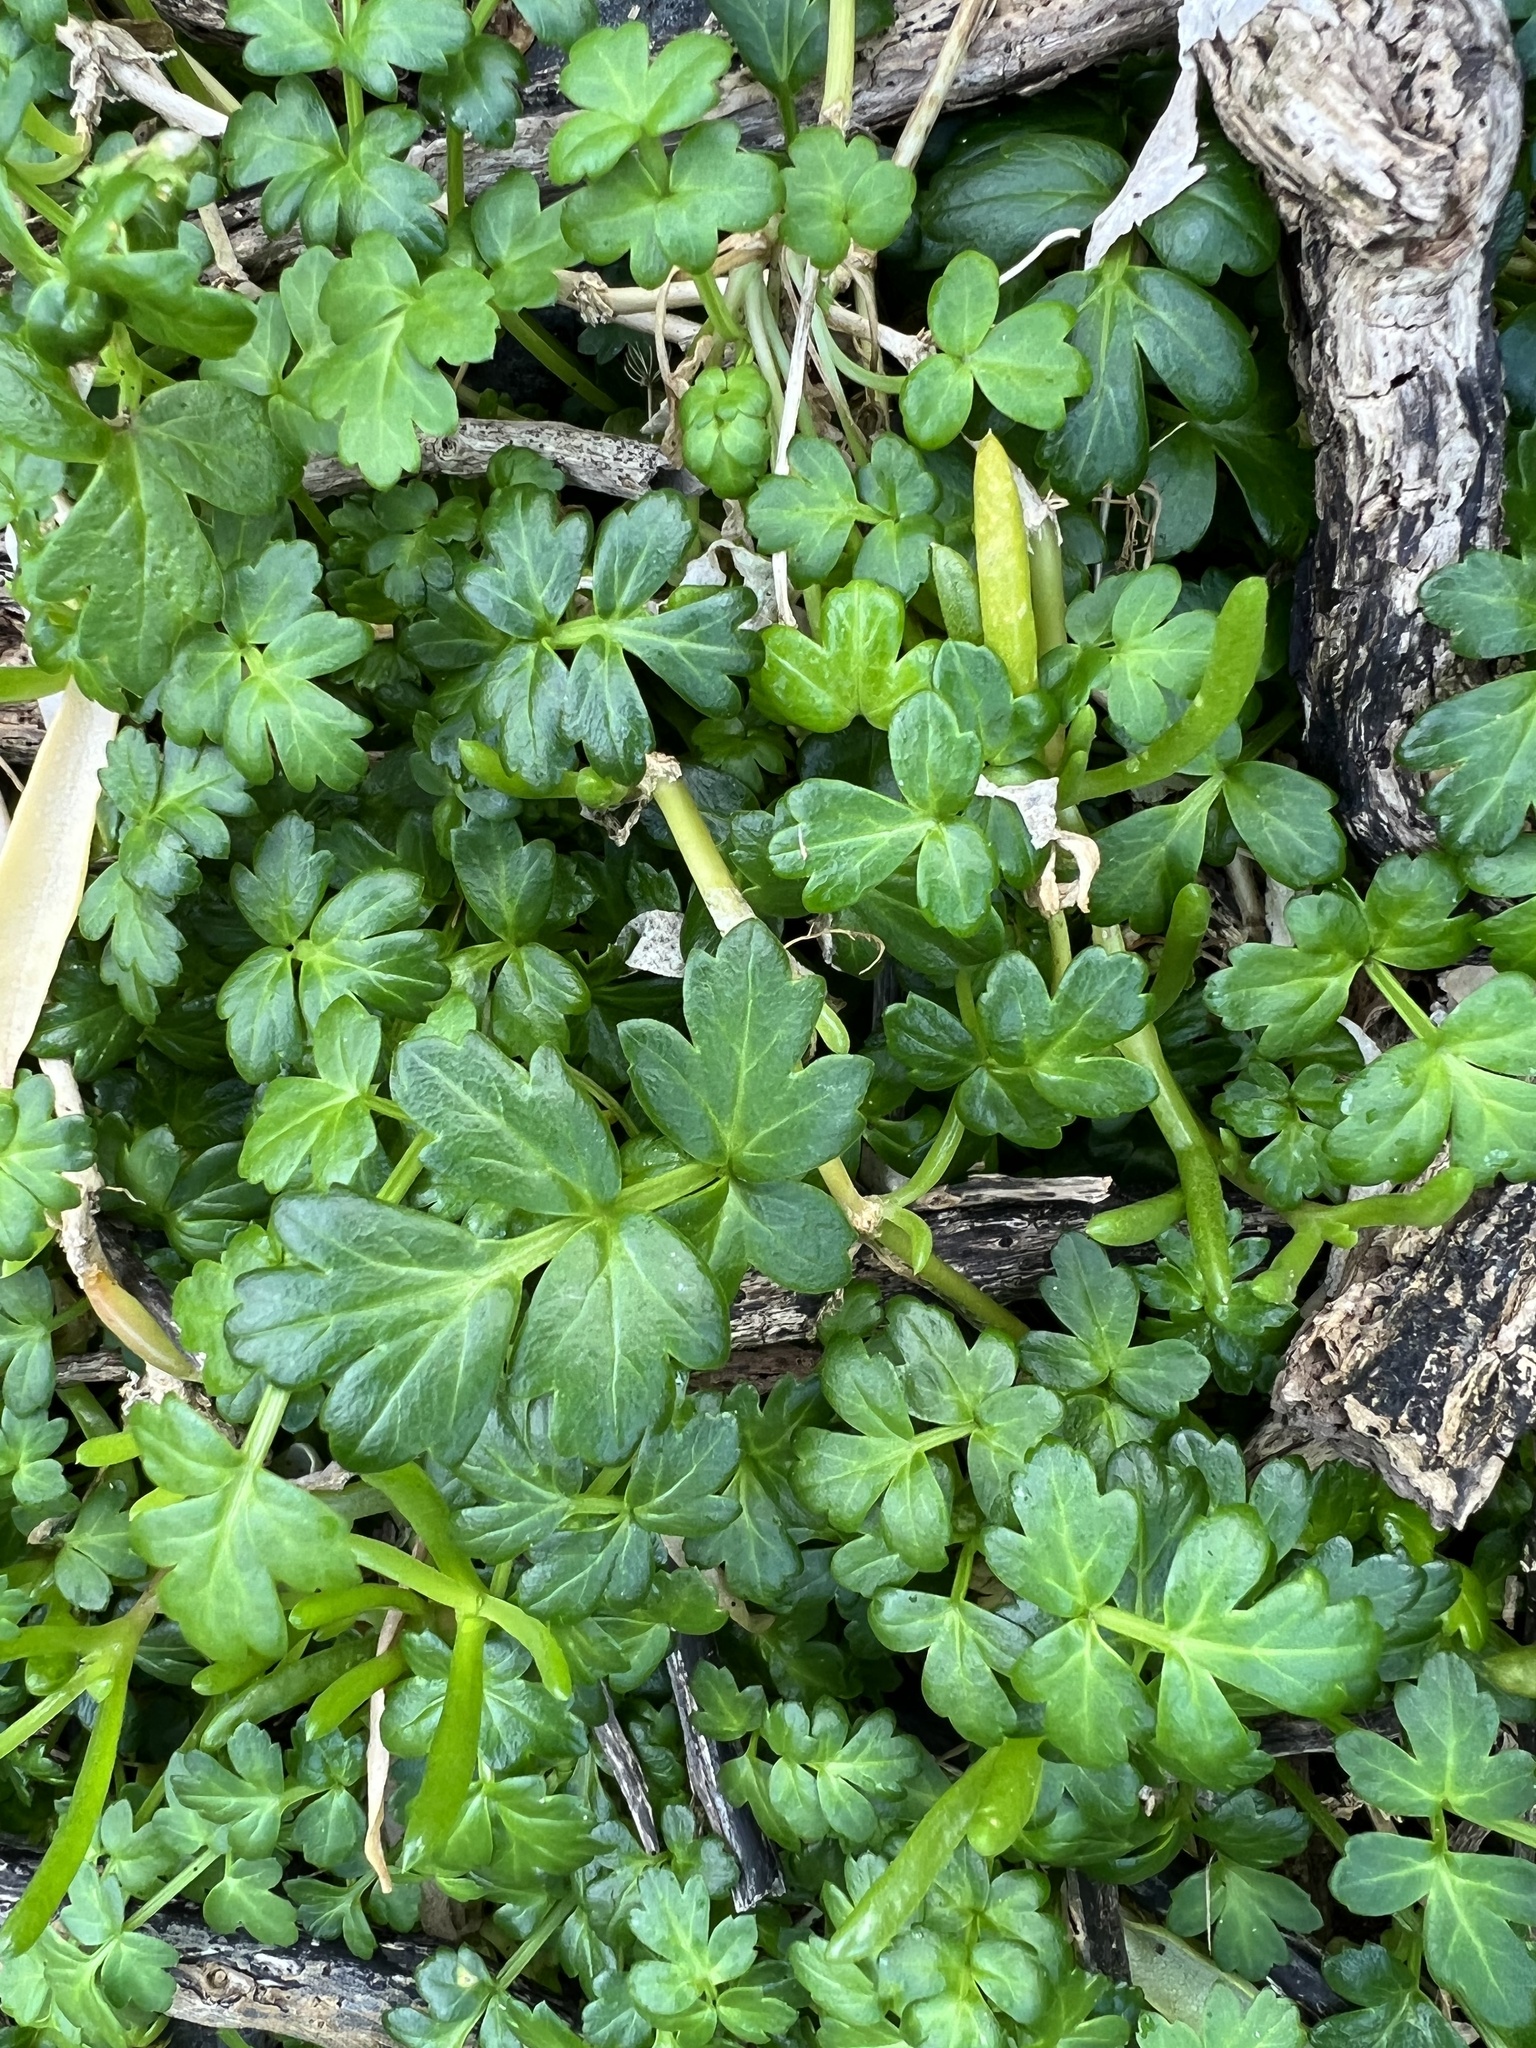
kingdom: Plantae
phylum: Tracheophyta
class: Magnoliopsida
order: Apiales
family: Apiaceae
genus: Apium
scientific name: Apium prostratum
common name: Prostrate marshwort
